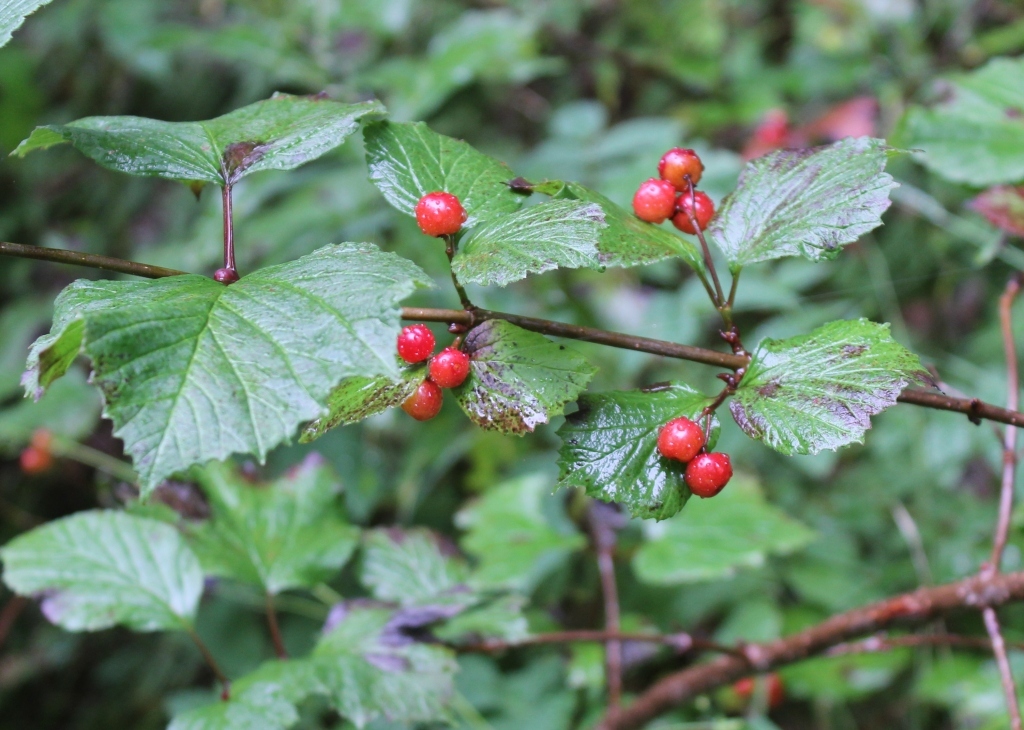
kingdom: Plantae
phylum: Tracheophyta
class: Magnoliopsida
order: Dipsacales
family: Viburnaceae
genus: Viburnum
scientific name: Viburnum edule
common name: Mooseberry
